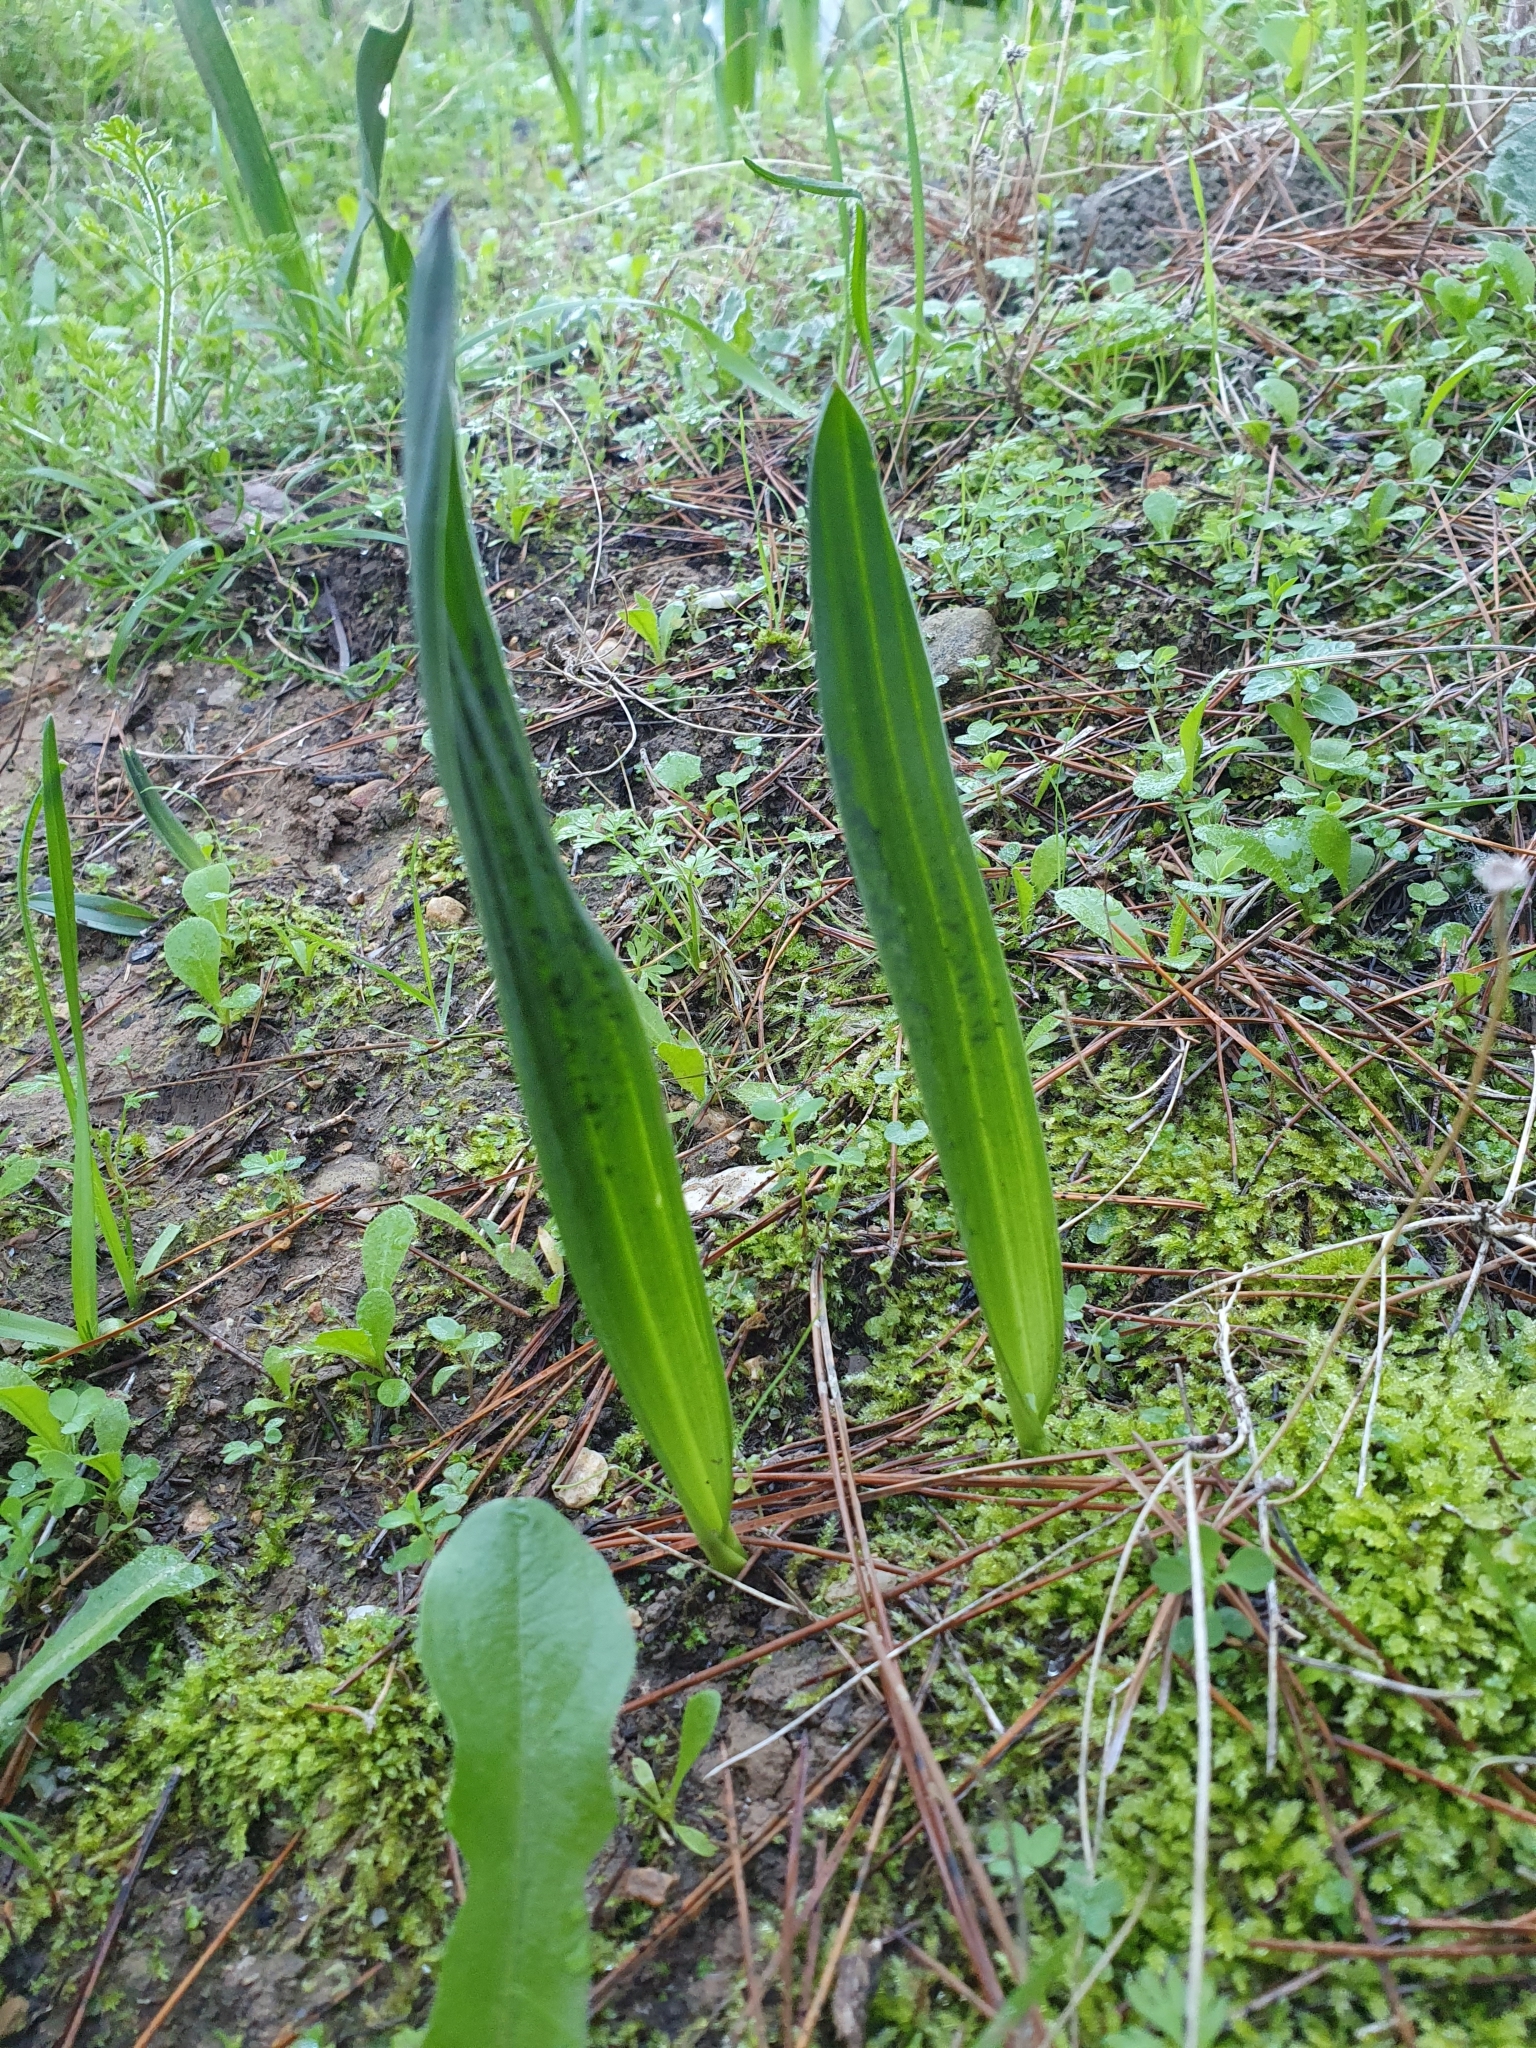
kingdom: Plantae
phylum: Tracheophyta
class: Liliopsida
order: Asparagales
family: Asparagaceae
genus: Drimia
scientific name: Drimia numidica
